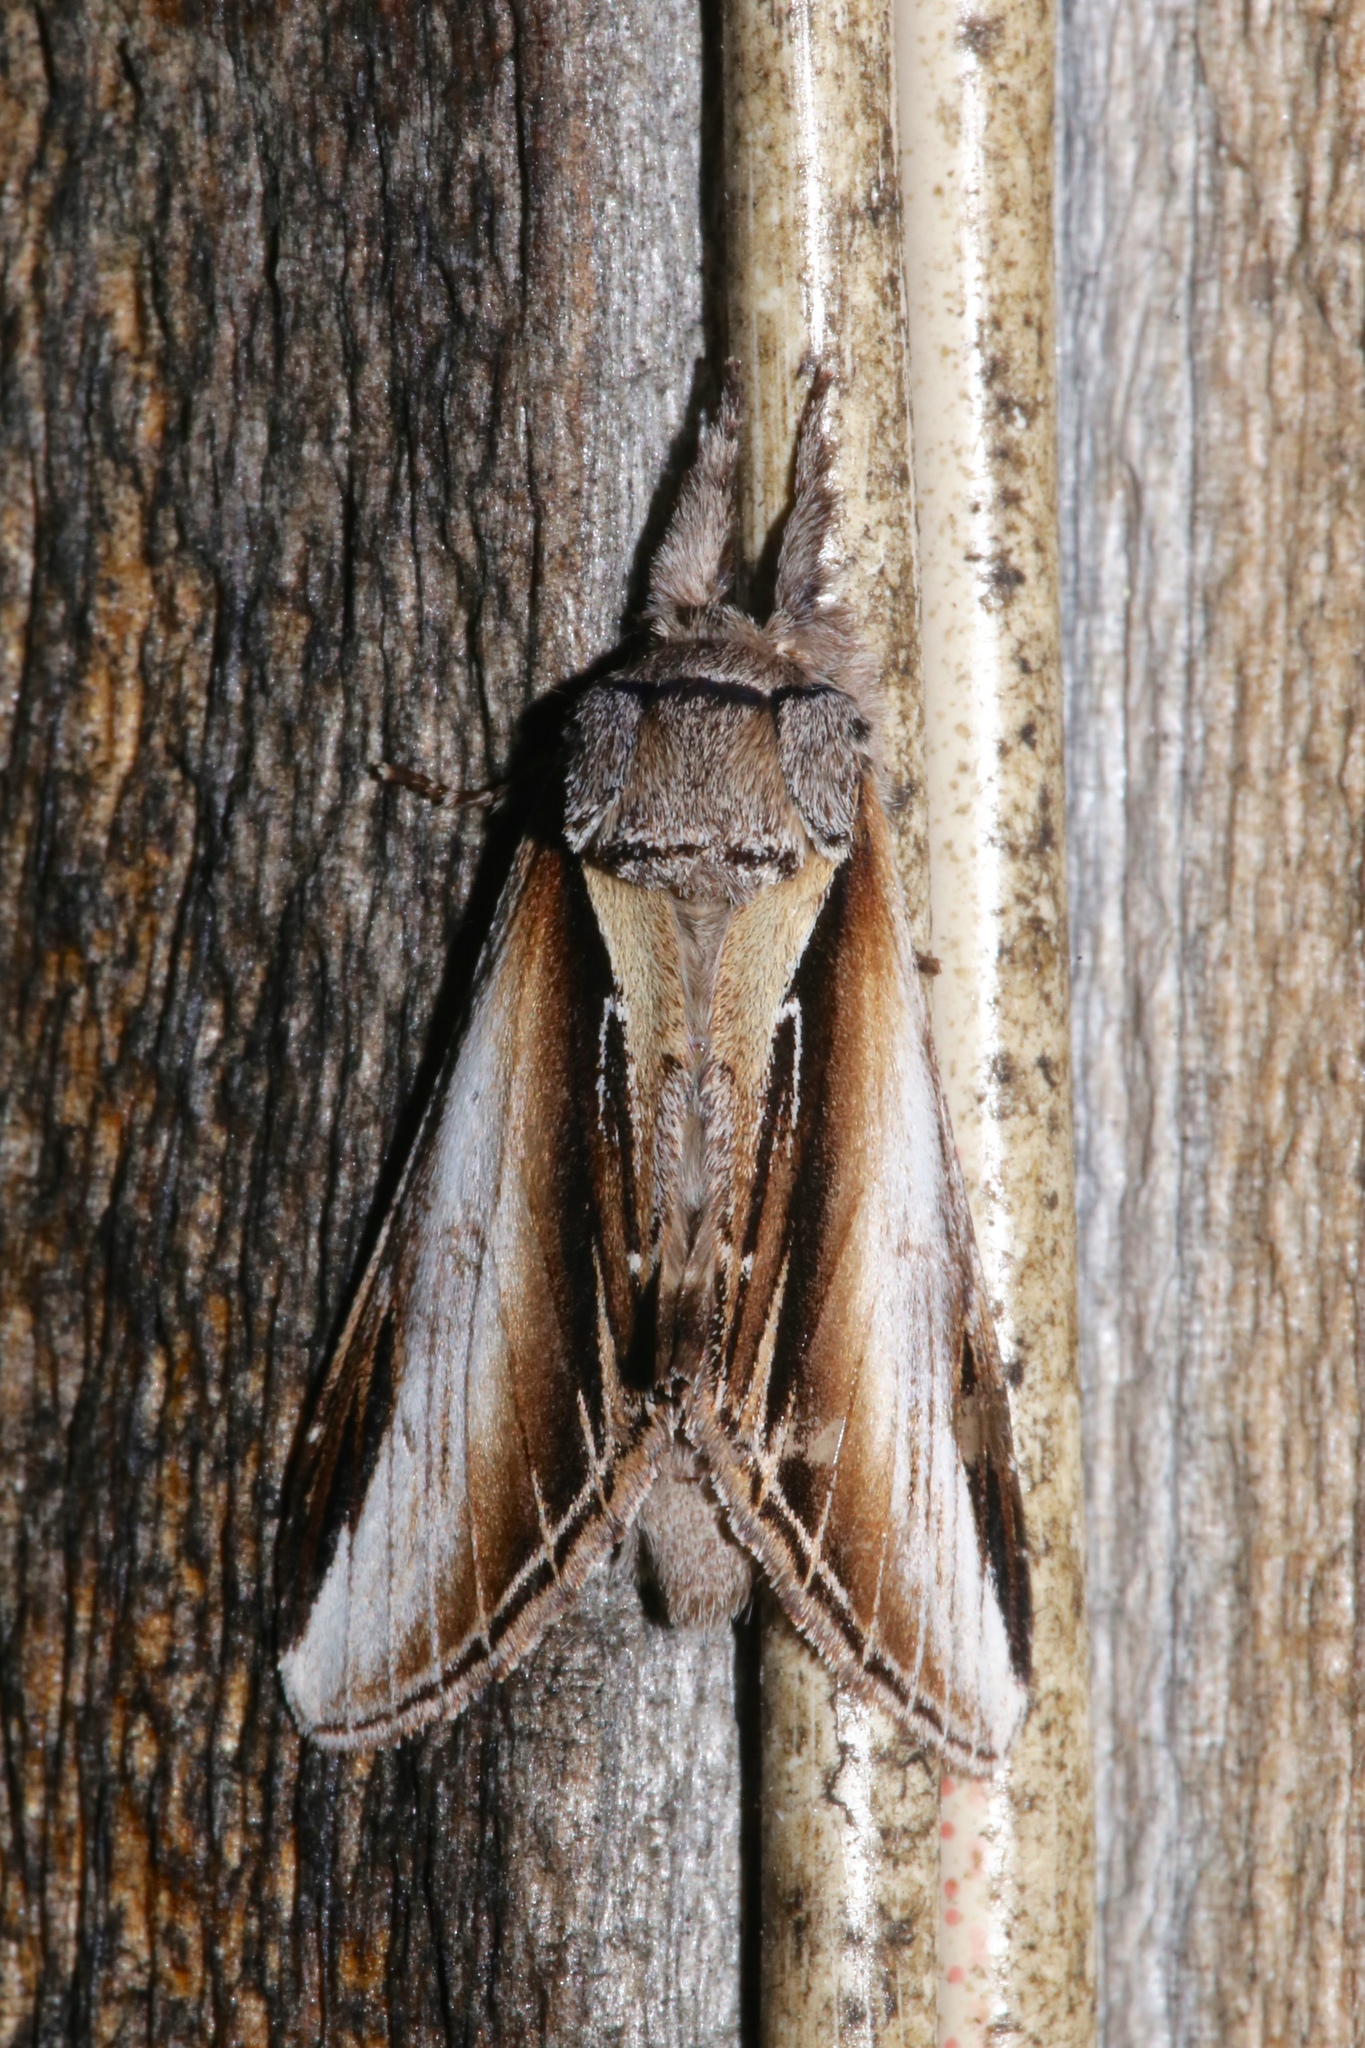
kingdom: Animalia
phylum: Arthropoda
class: Insecta
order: Lepidoptera
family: Notodontidae
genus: Pheosia
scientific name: Pheosia rimosa
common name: Black-rimmed prominent
